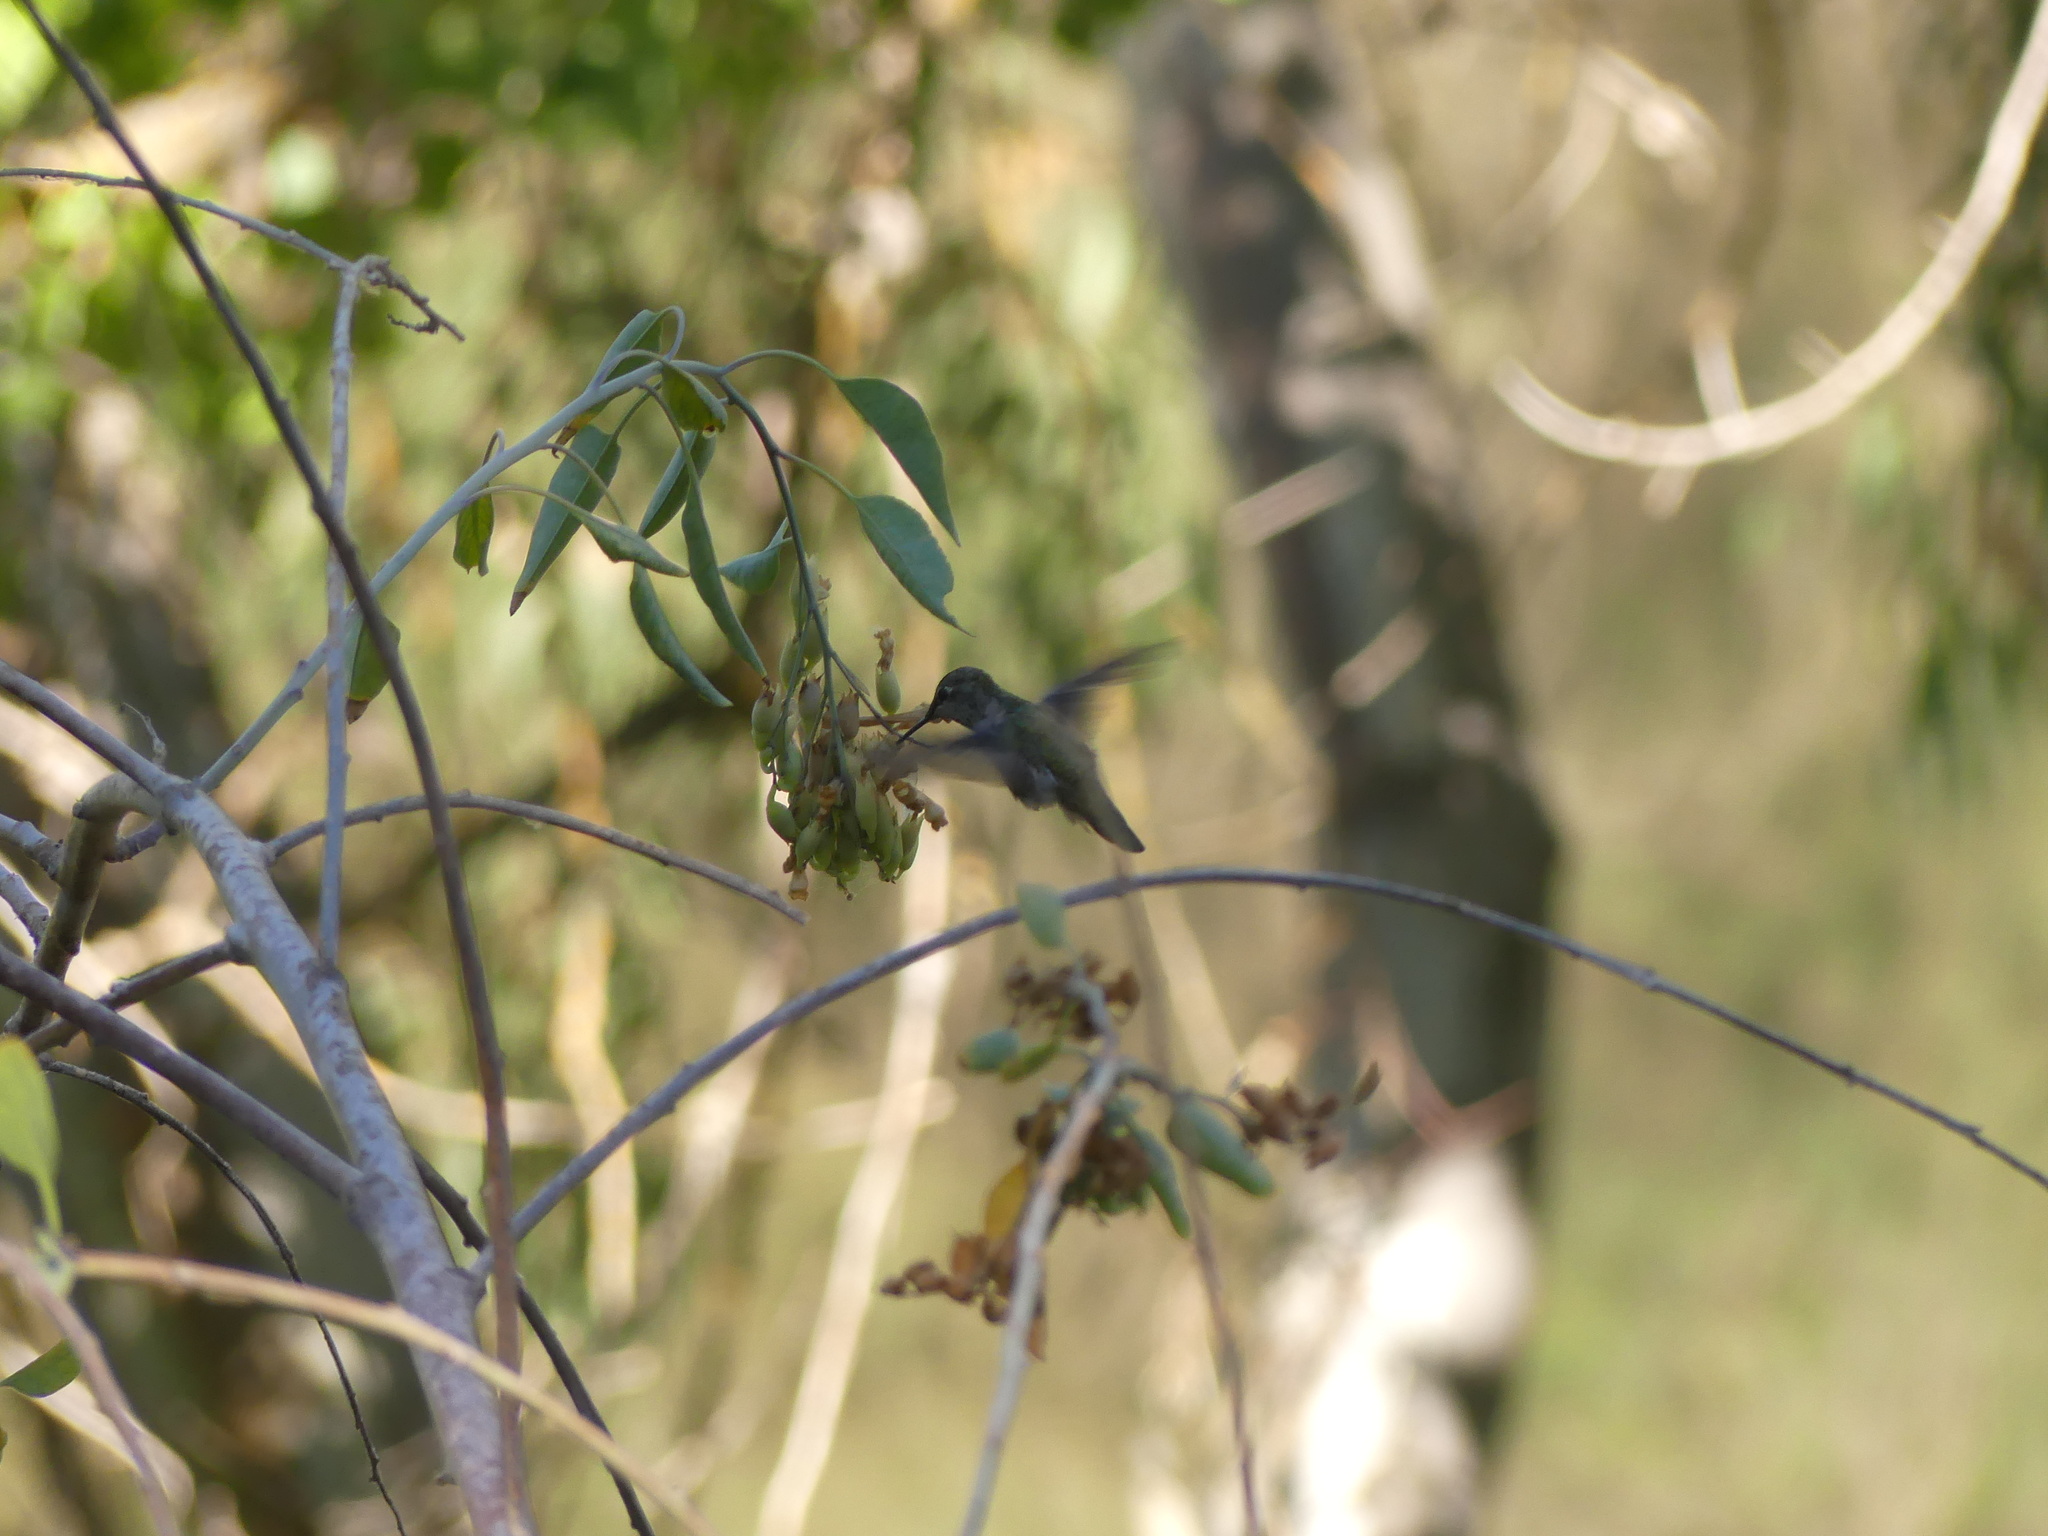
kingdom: Animalia
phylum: Chordata
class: Aves
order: Apodiformes
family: Trochilidae
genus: Calypte
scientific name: Calypte anna
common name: Anna's hummingbird
